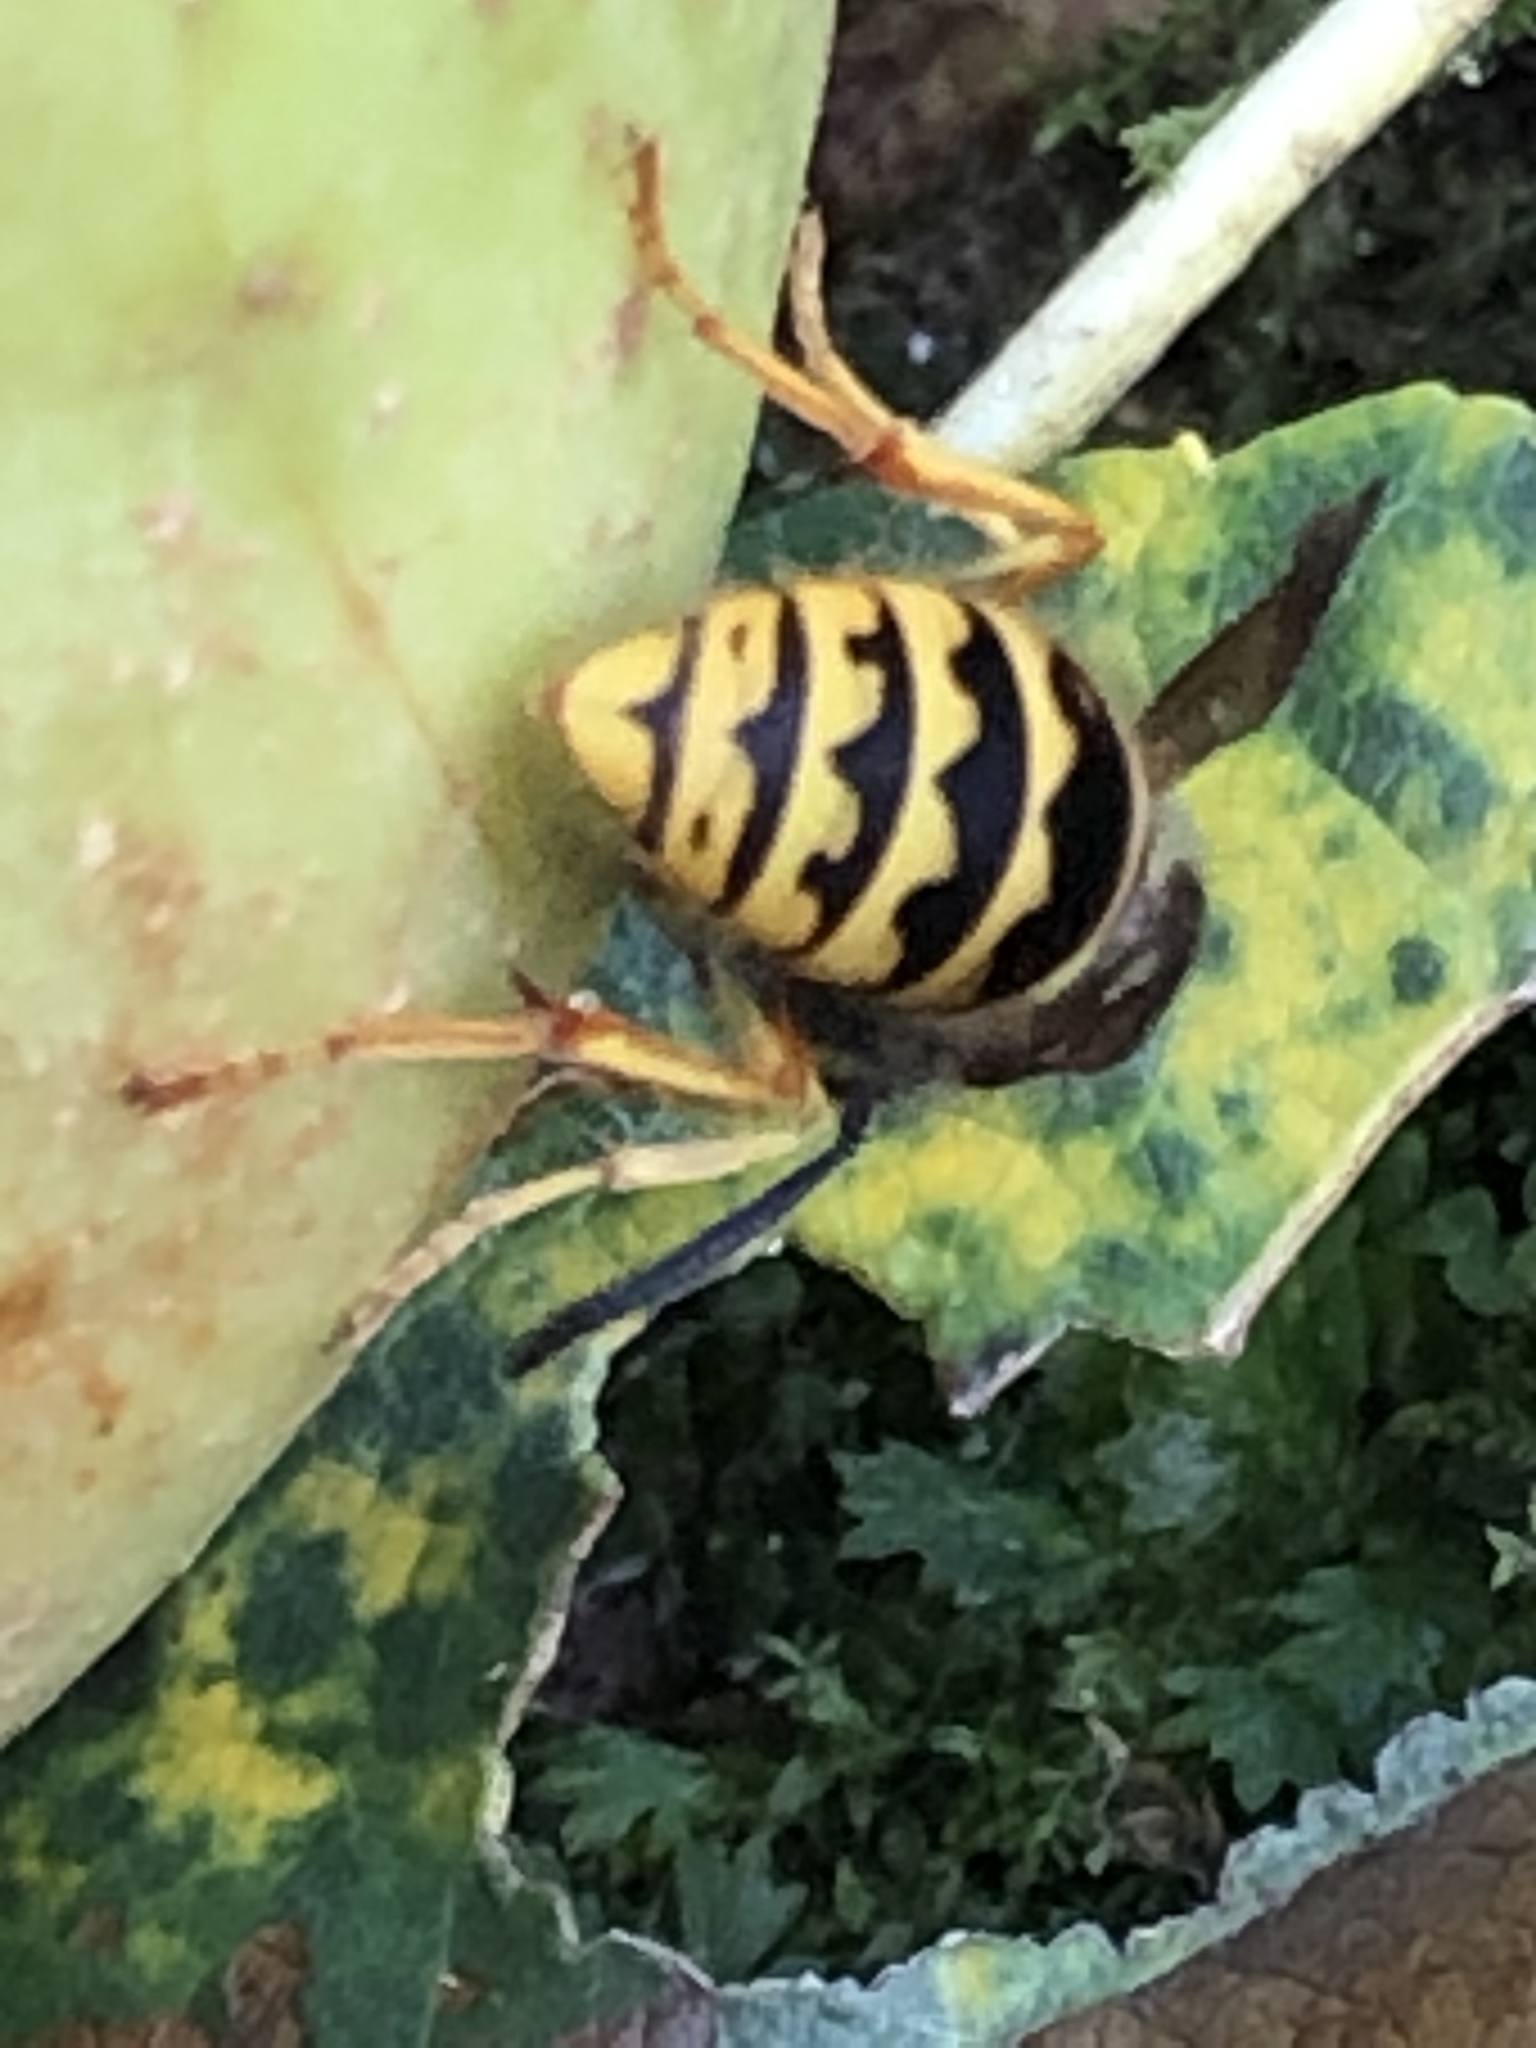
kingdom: Animalia
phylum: Arthropoda
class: Insecta
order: Hymenoptera
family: Vespidae
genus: Vespula
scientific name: Vespula
